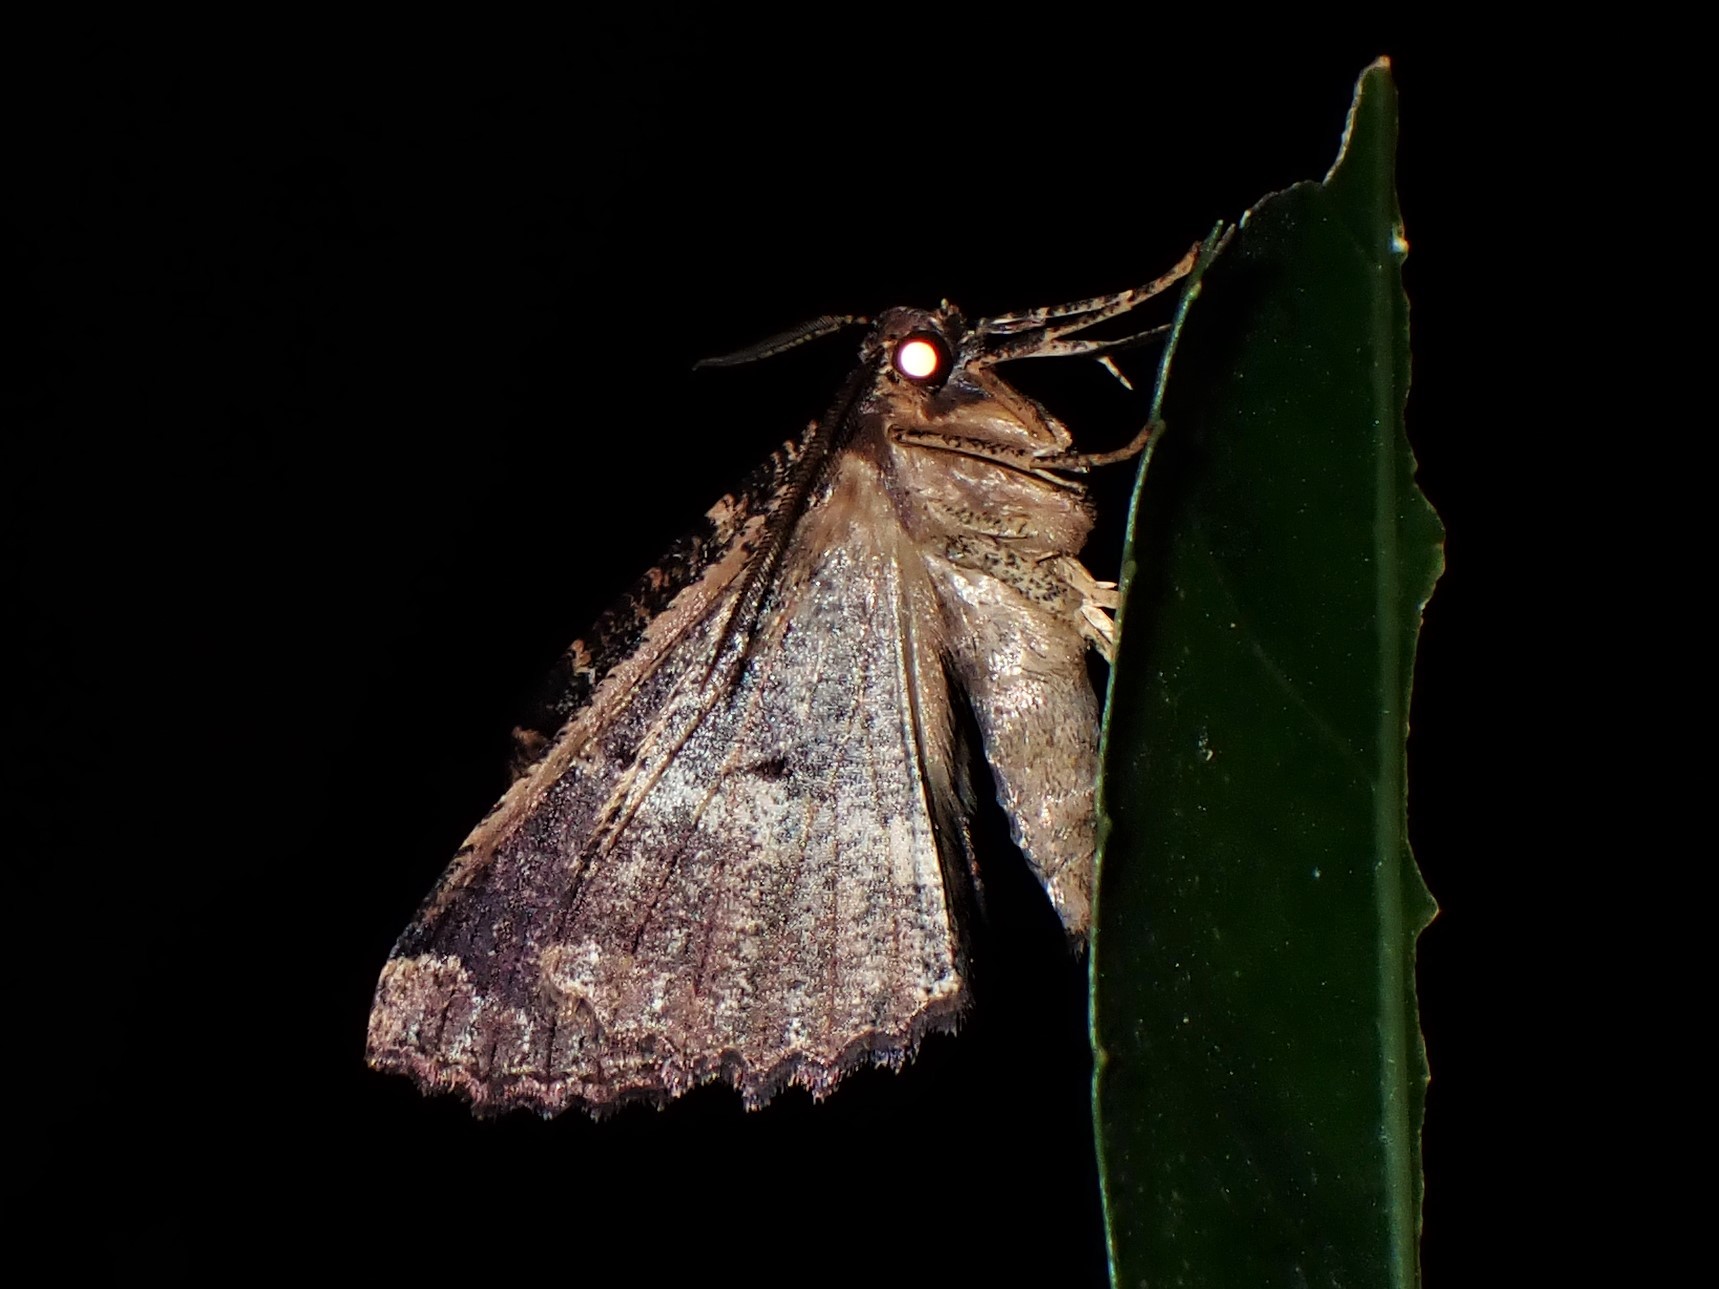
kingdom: Animalia
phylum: Arthropoda
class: Insecta
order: Lepidoptera
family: Geometridae
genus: Gellonia
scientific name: Gellonia dejectaria
